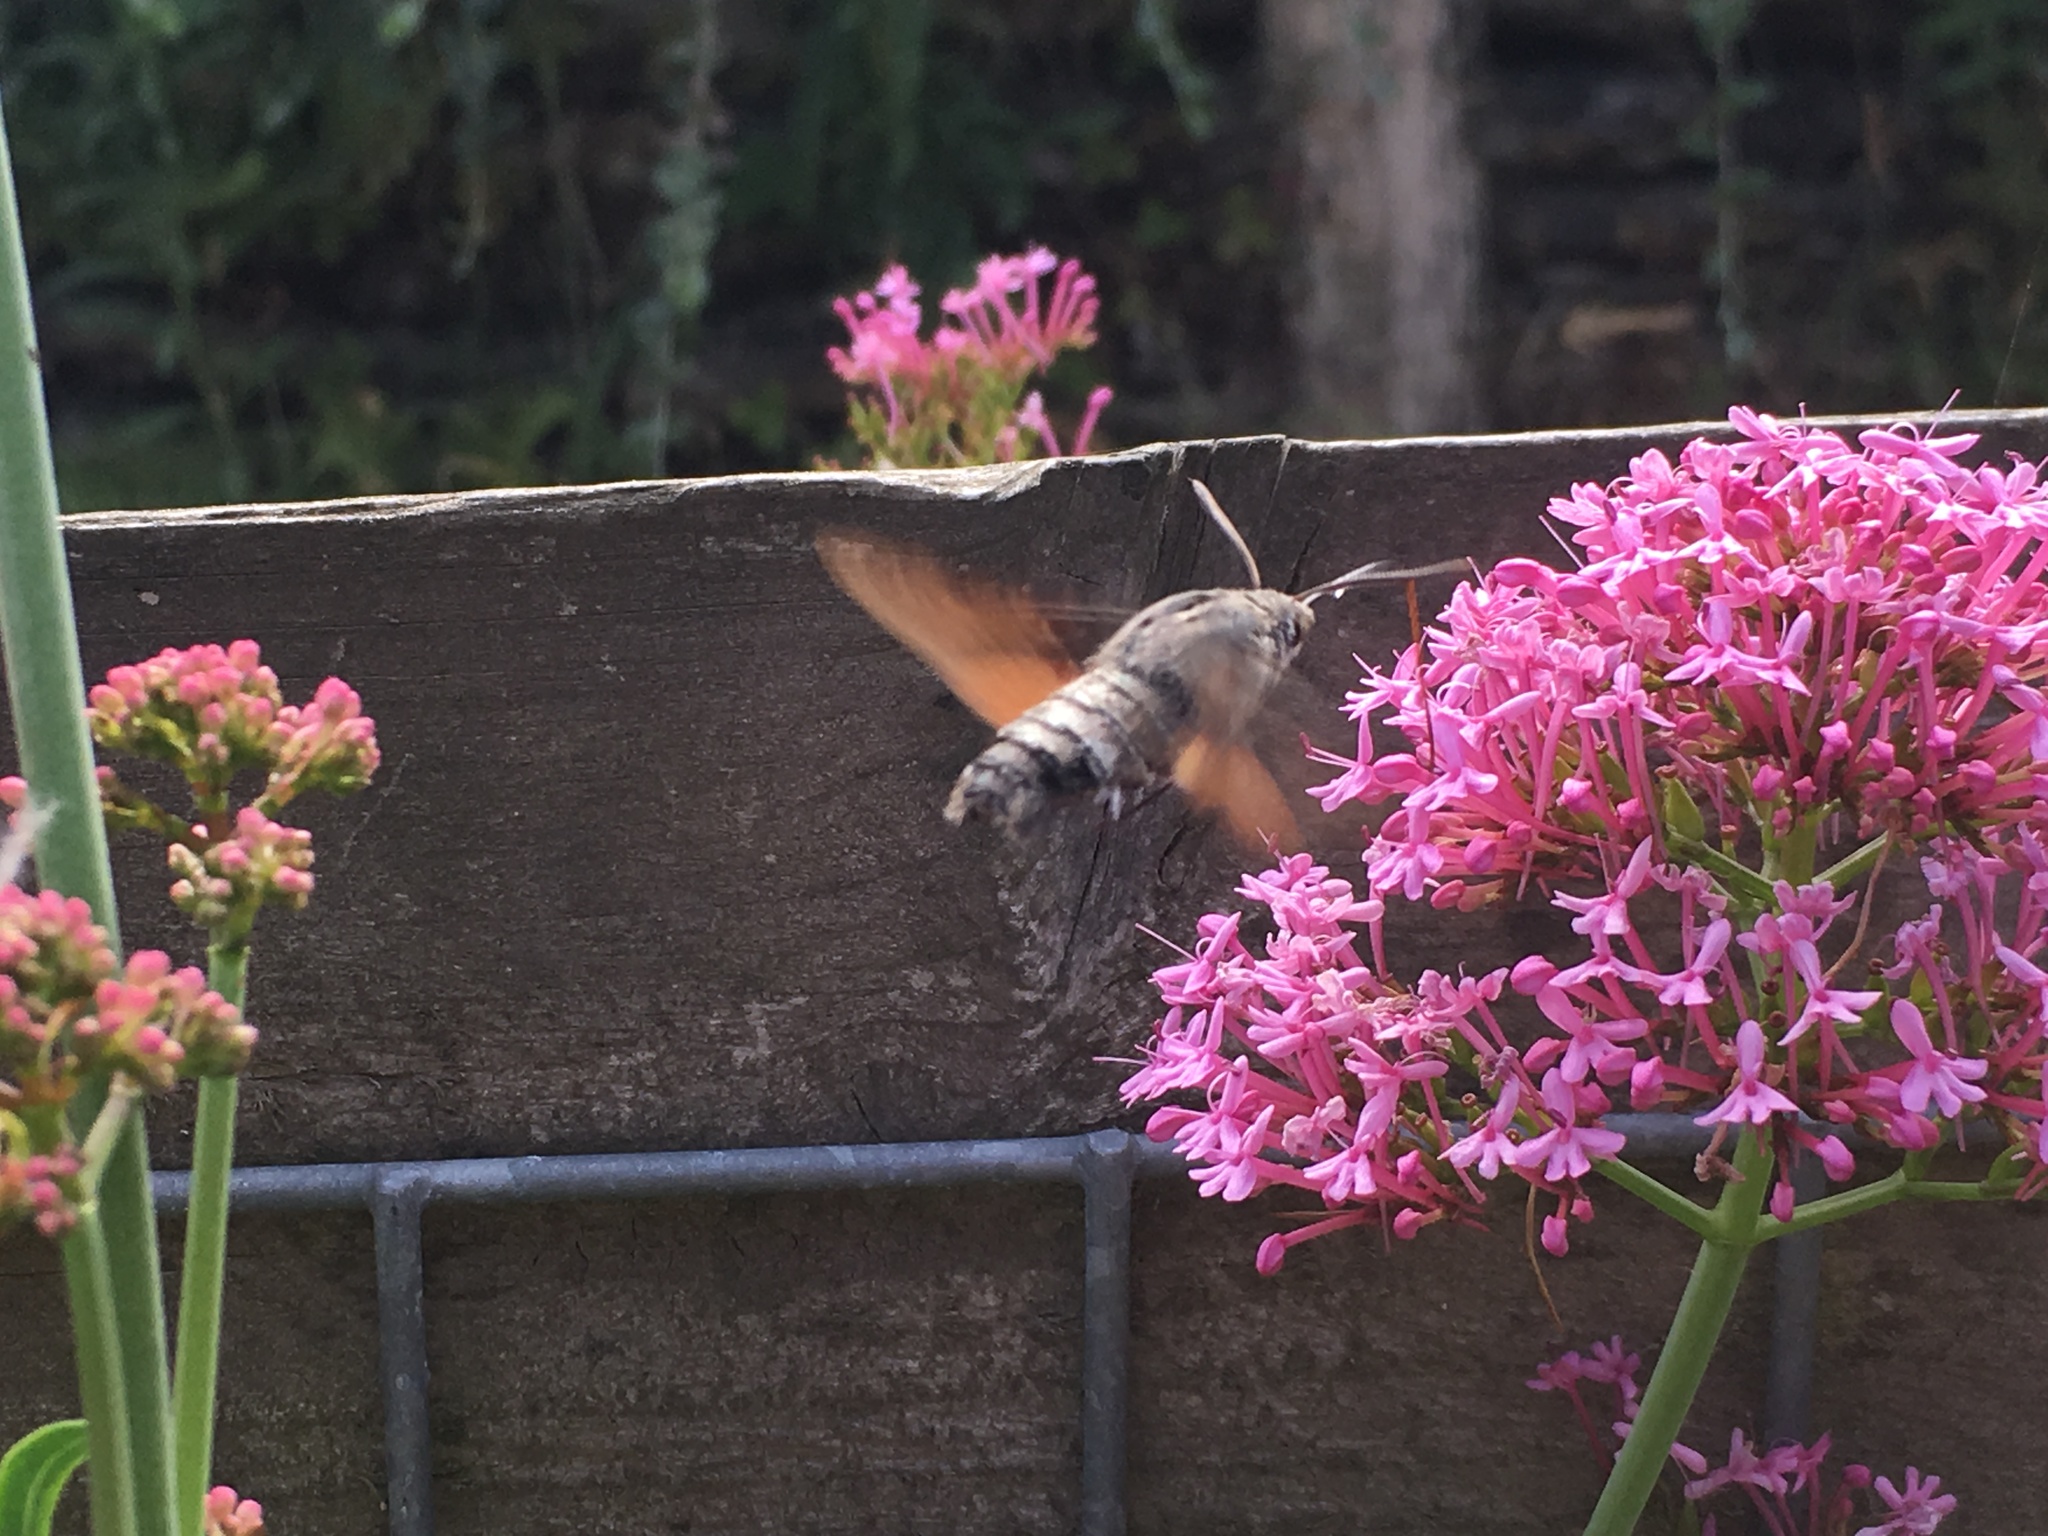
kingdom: Animalia
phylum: Arthropoda
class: Insecta
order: Lepidoptera
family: Sphingidae
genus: Macroglossum
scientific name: Macroglossum stellatarum
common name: Humming-bird hawk-moth
